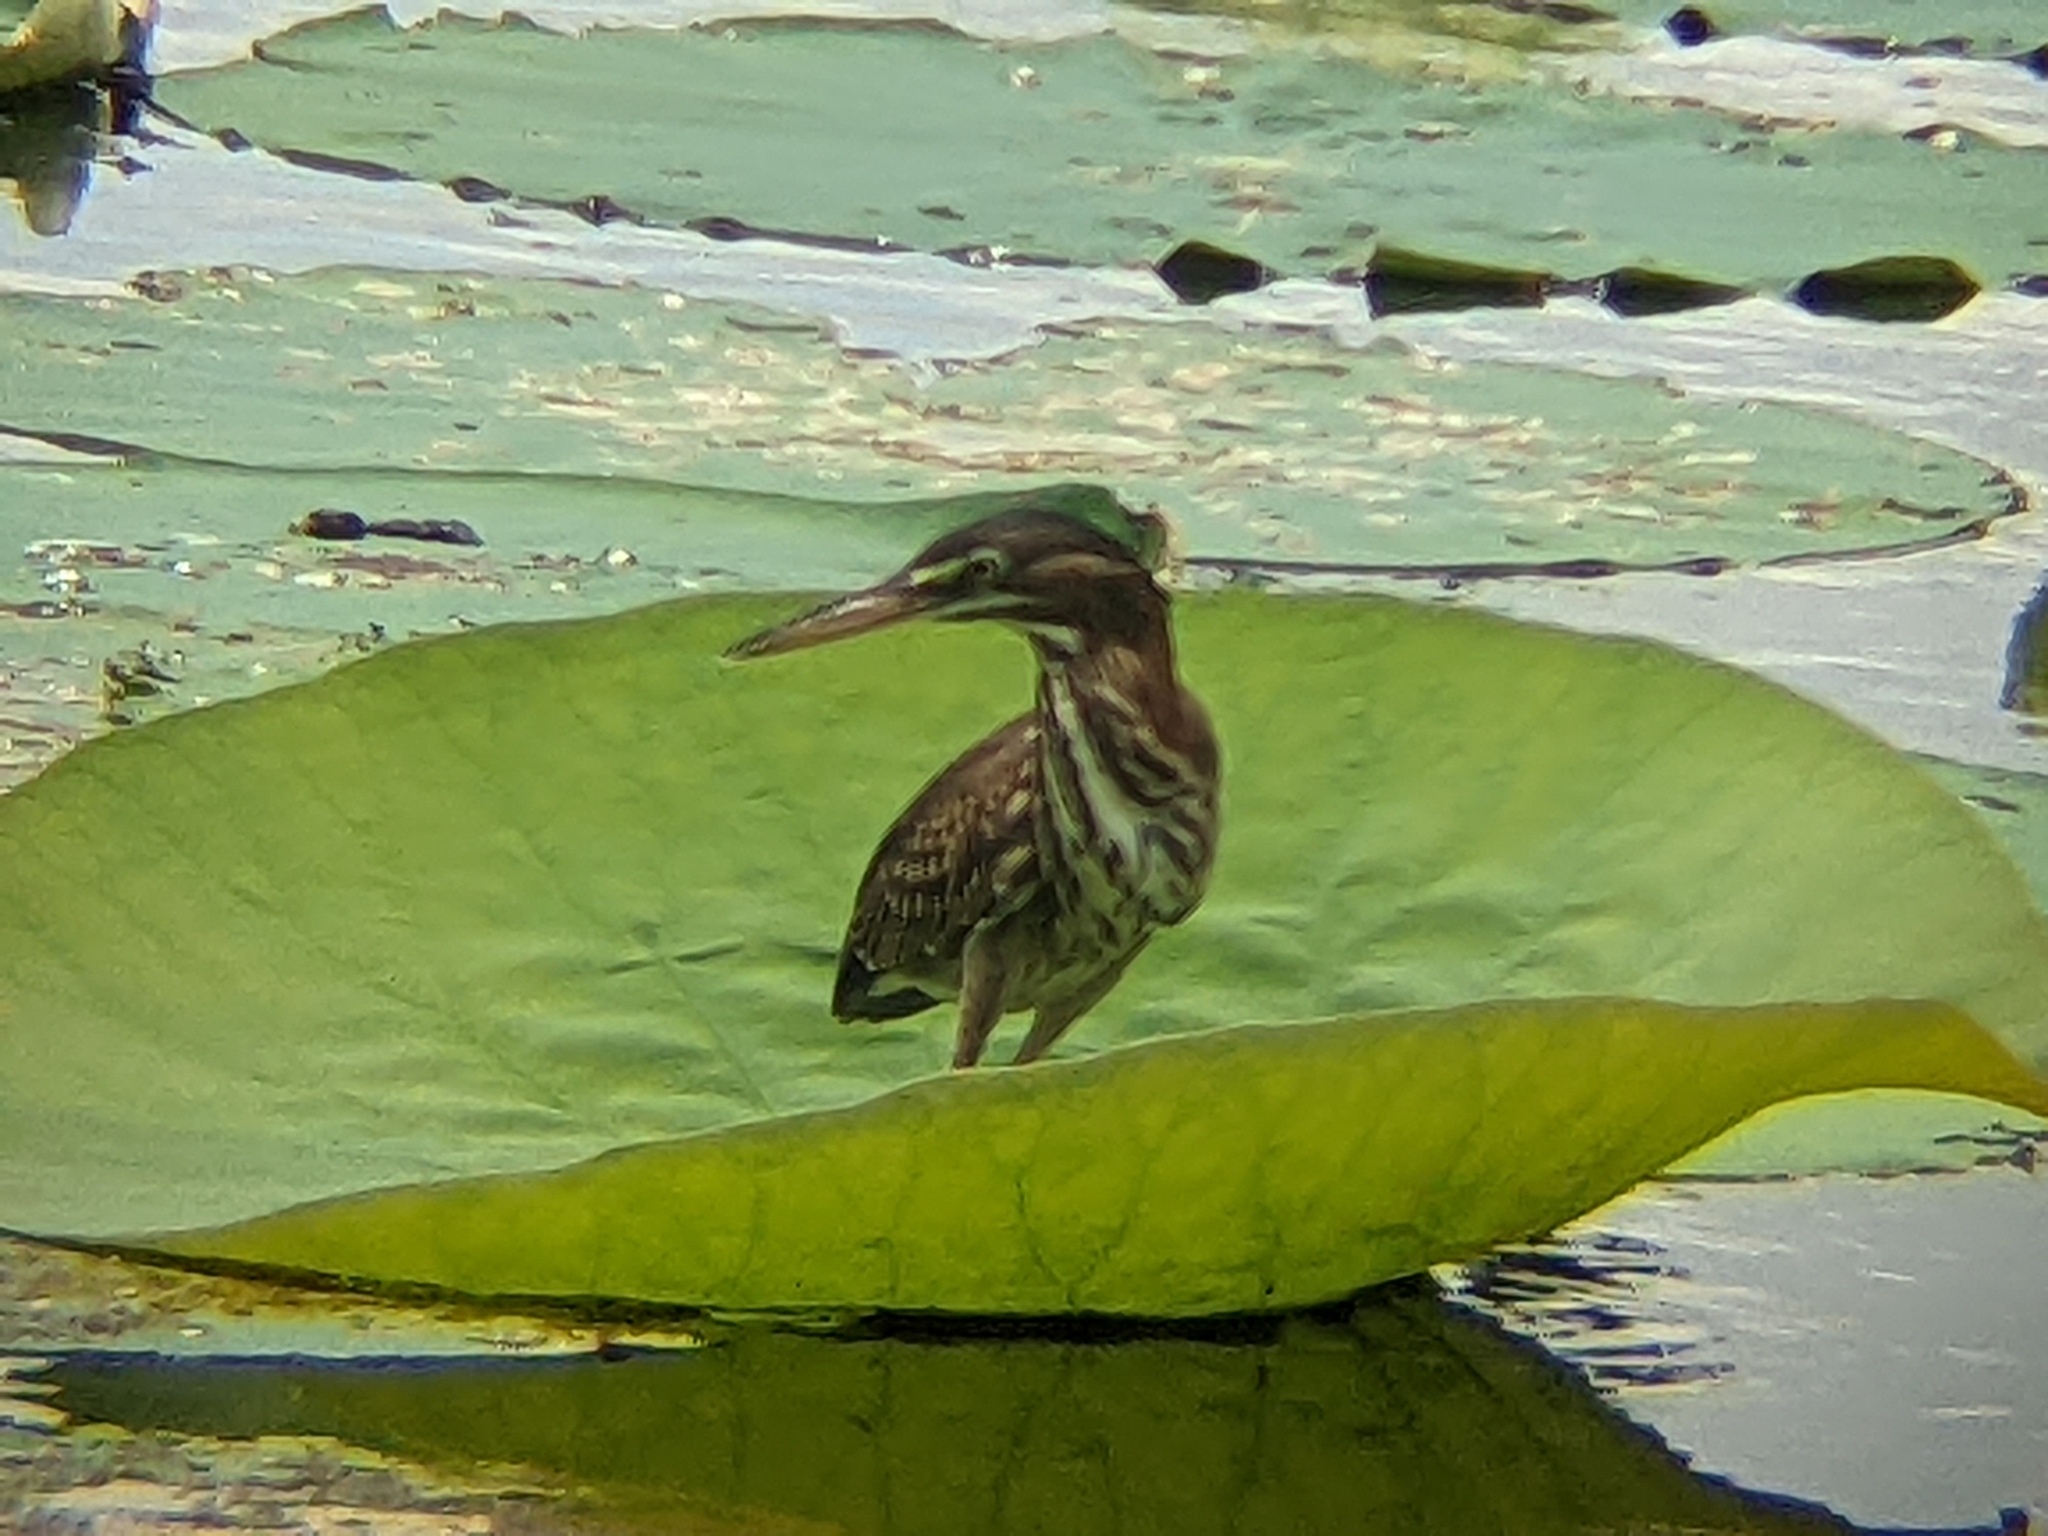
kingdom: Animalia
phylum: Chordata
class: Aves
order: Pelecaniformes
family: Ardeidae
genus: Butorides
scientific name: Butorides virescens
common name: Green heron
